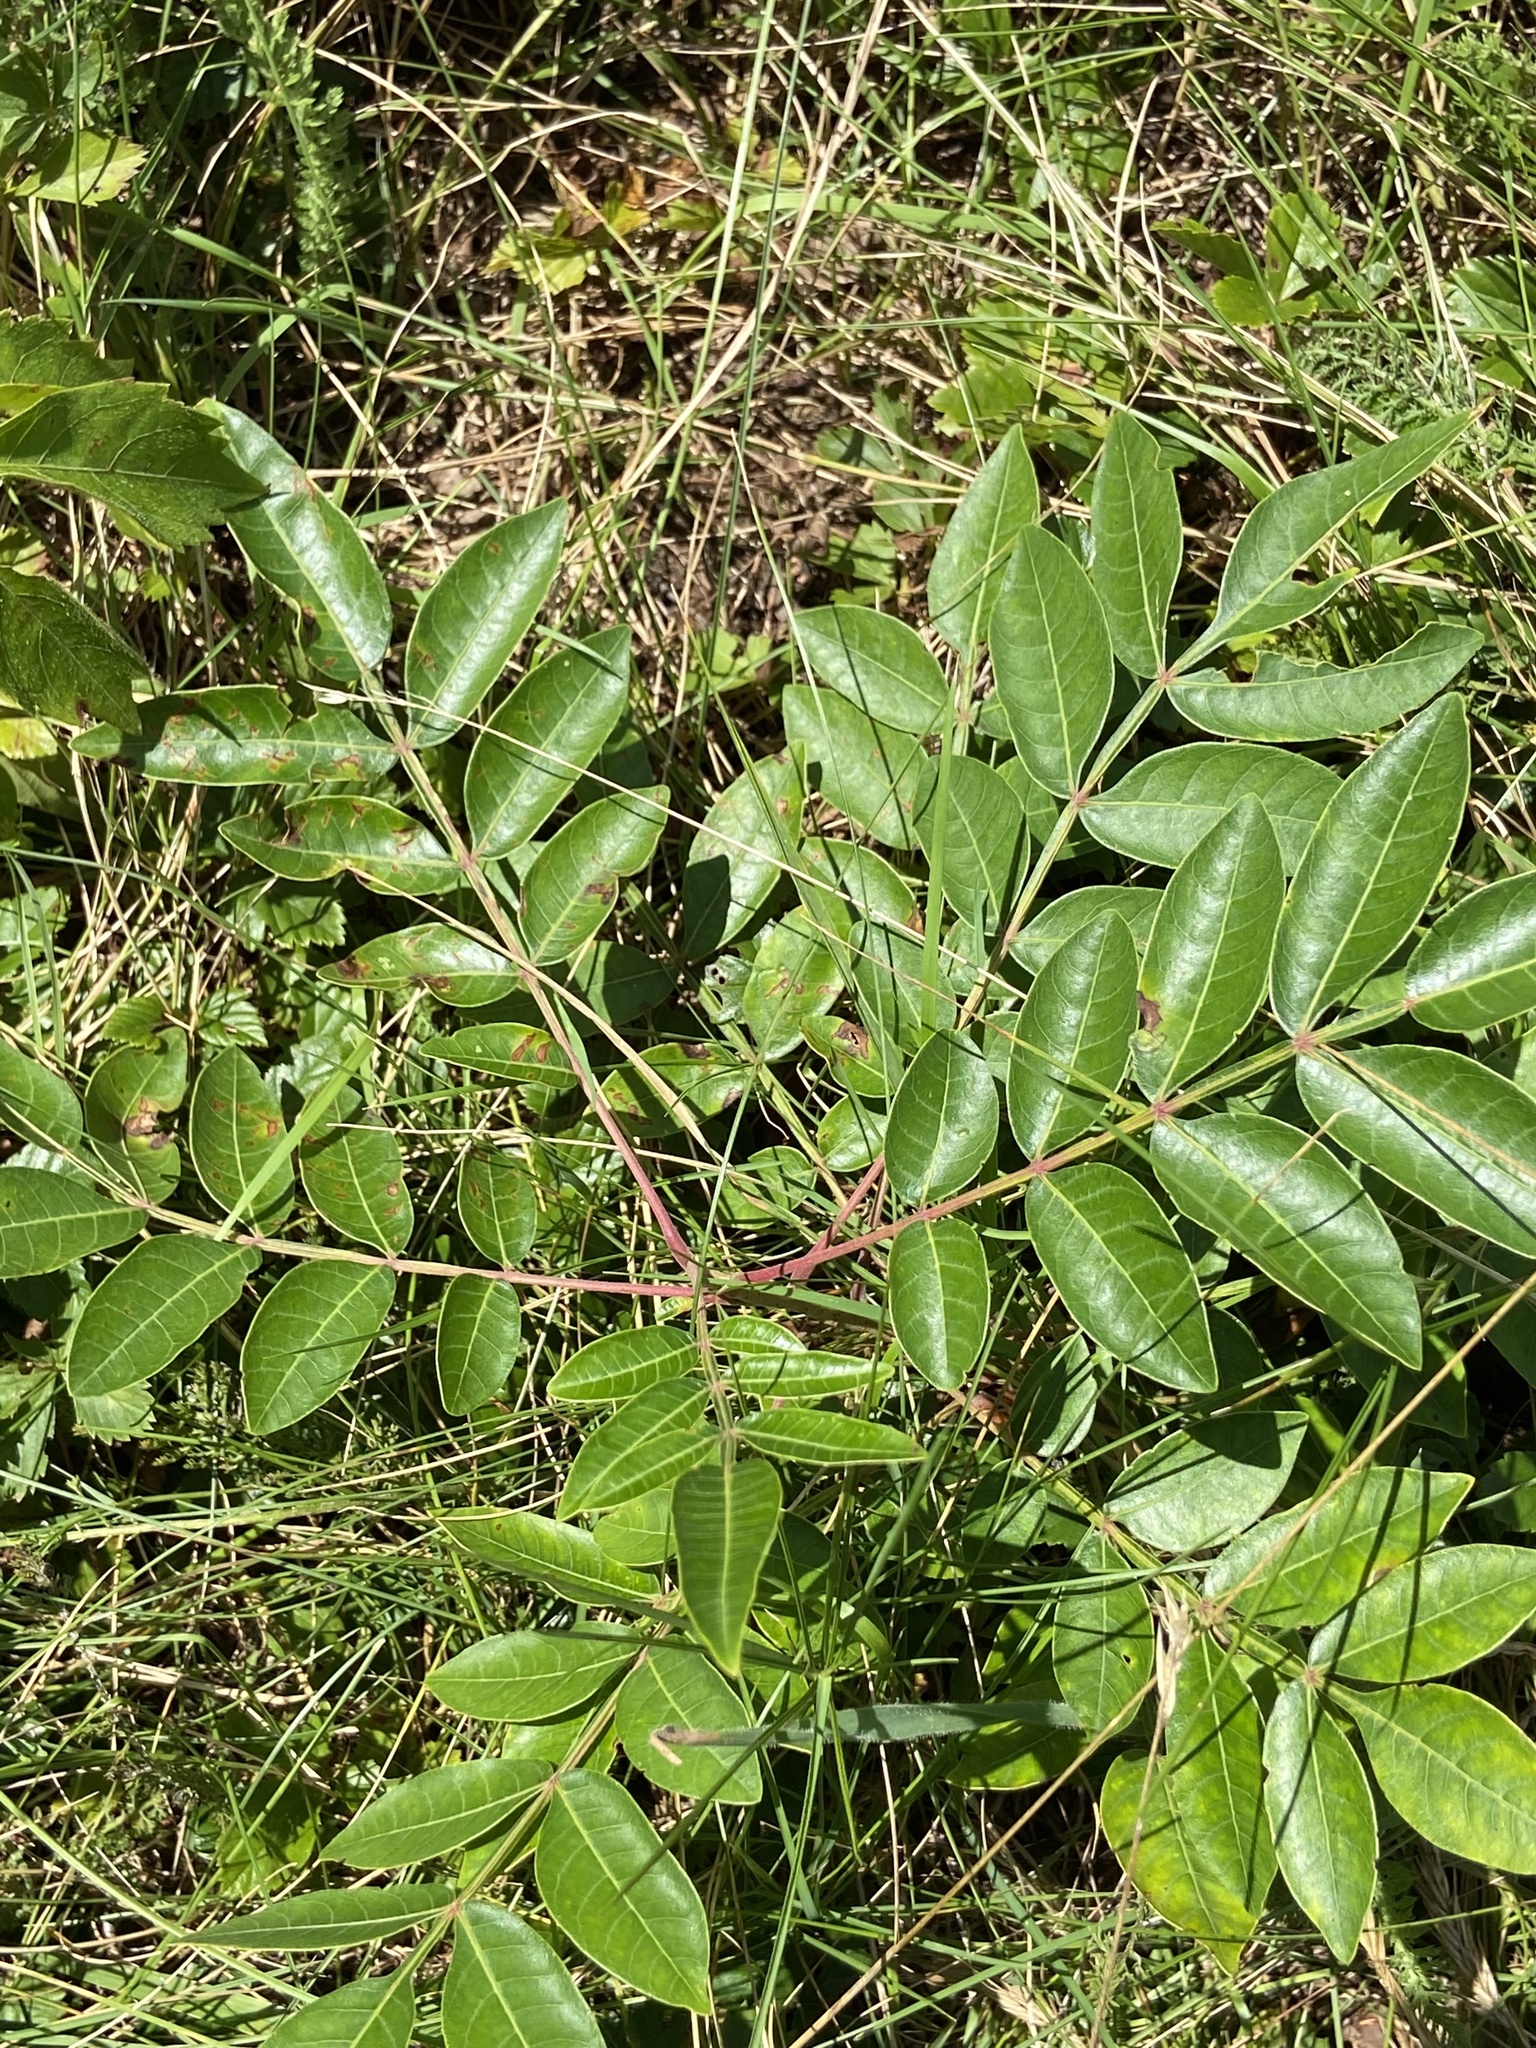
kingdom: Plantae
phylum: Tracheophyta
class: Magnoliopsida
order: Sapindales
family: Anacardiaceae
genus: Rhus
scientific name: Rhus copallina
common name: Shining sumac
